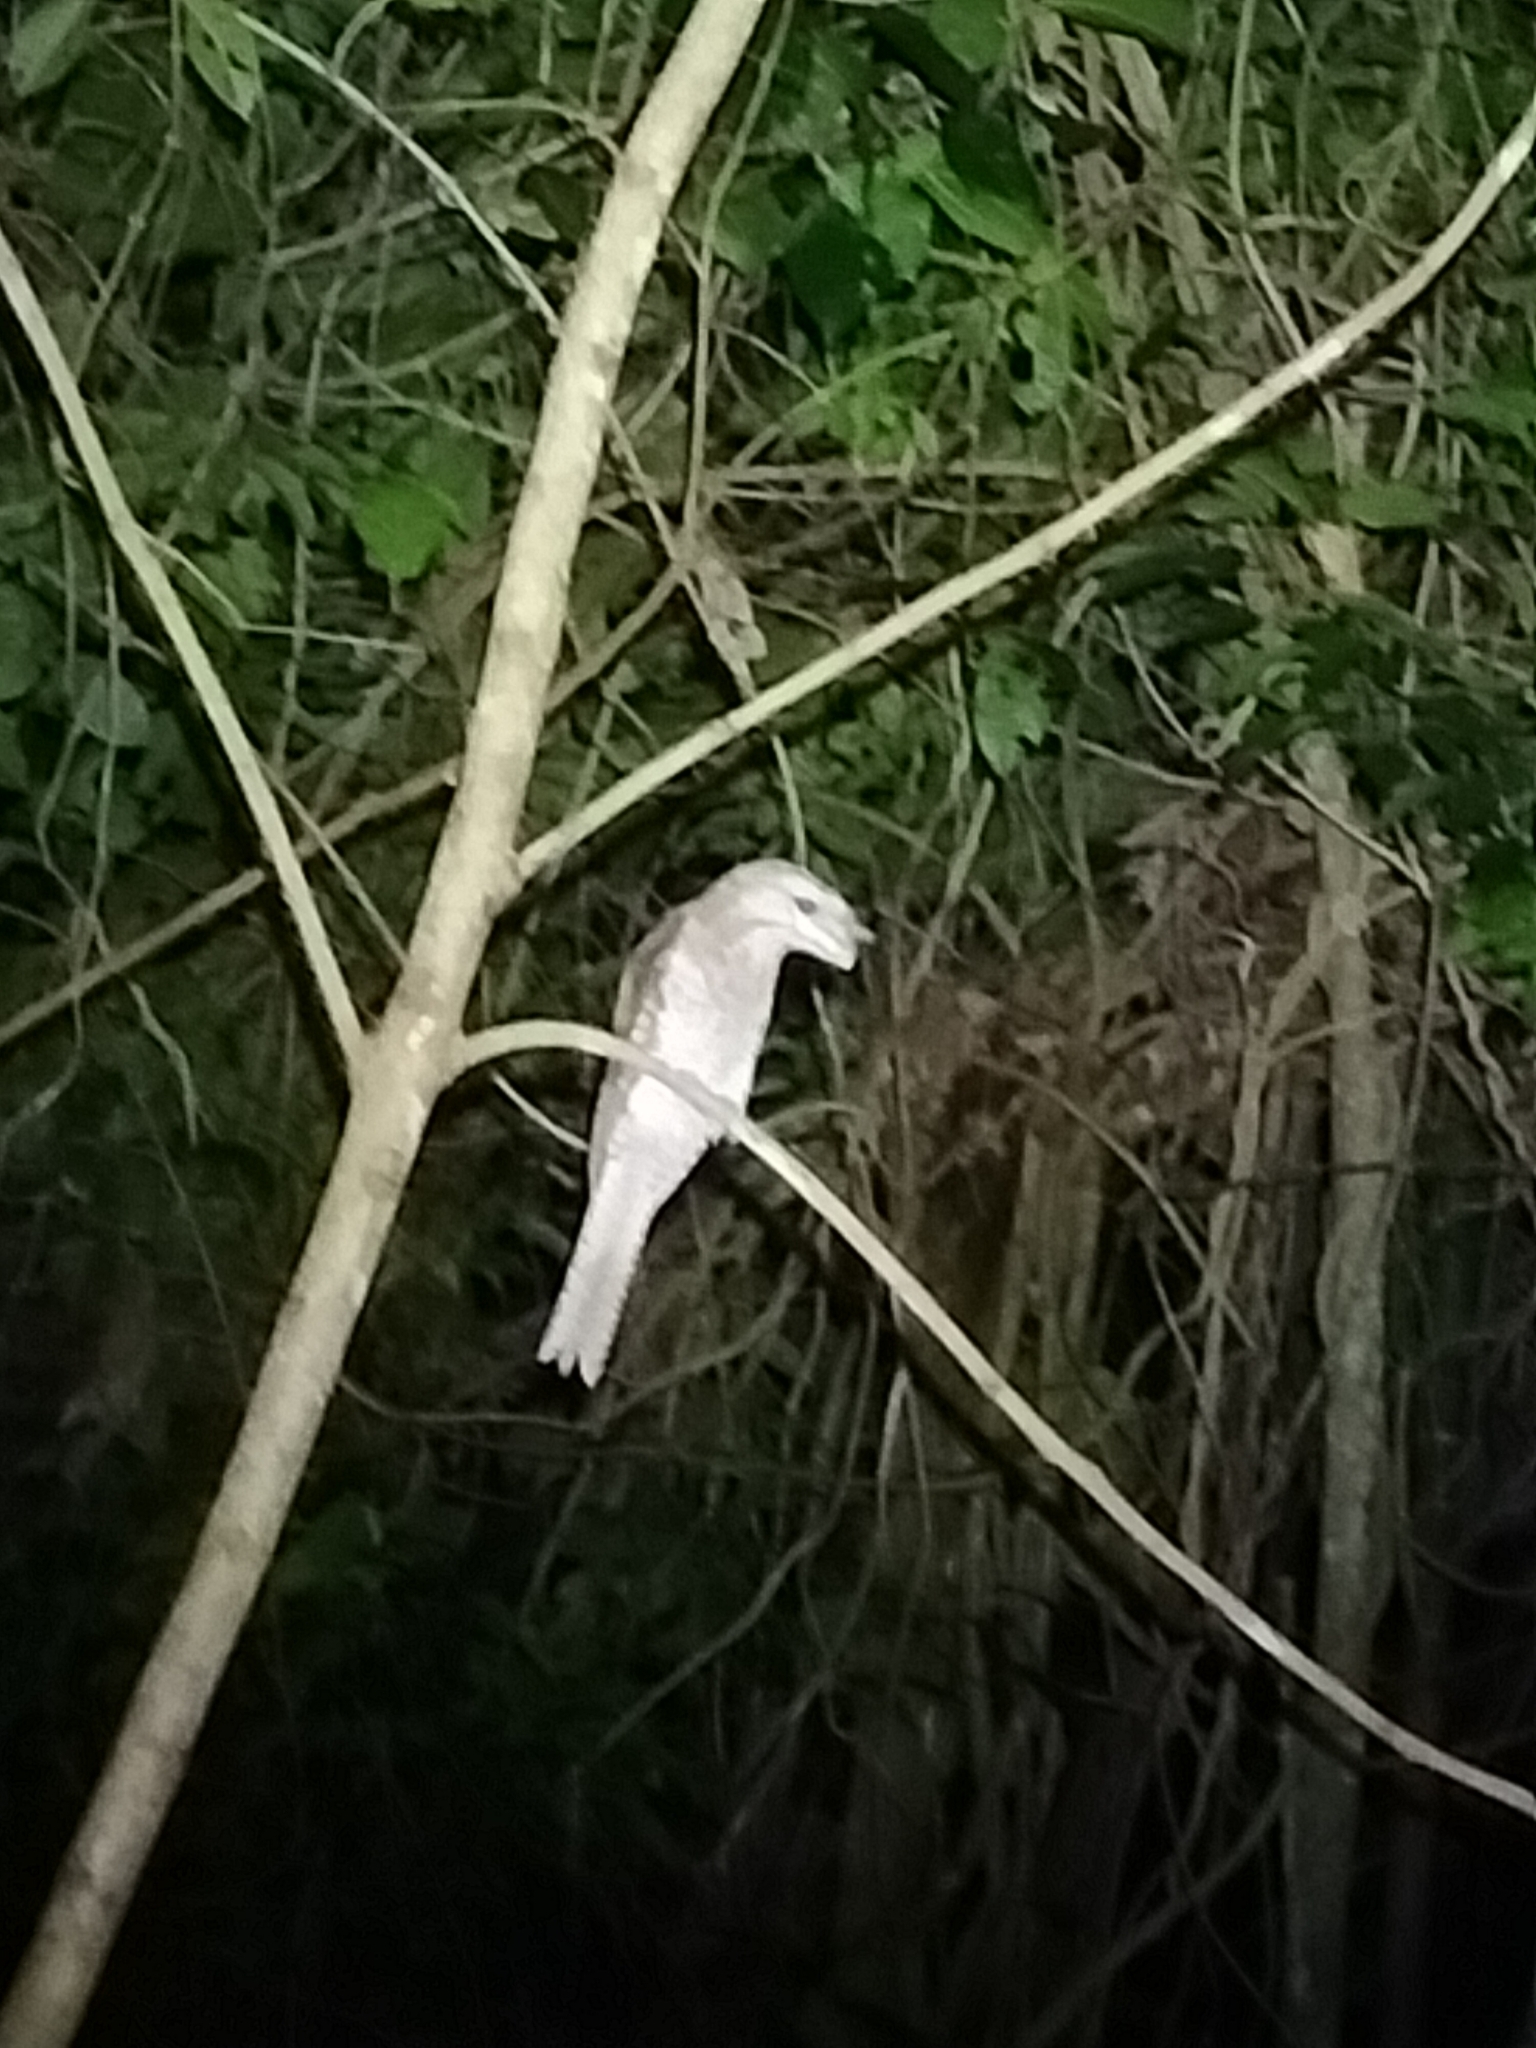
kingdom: Animalia
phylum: Chordata
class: Aves
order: Caprimulgiformes
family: Podargidae
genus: Podargus
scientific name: Podargus papuensis
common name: Papuan frogmouth
